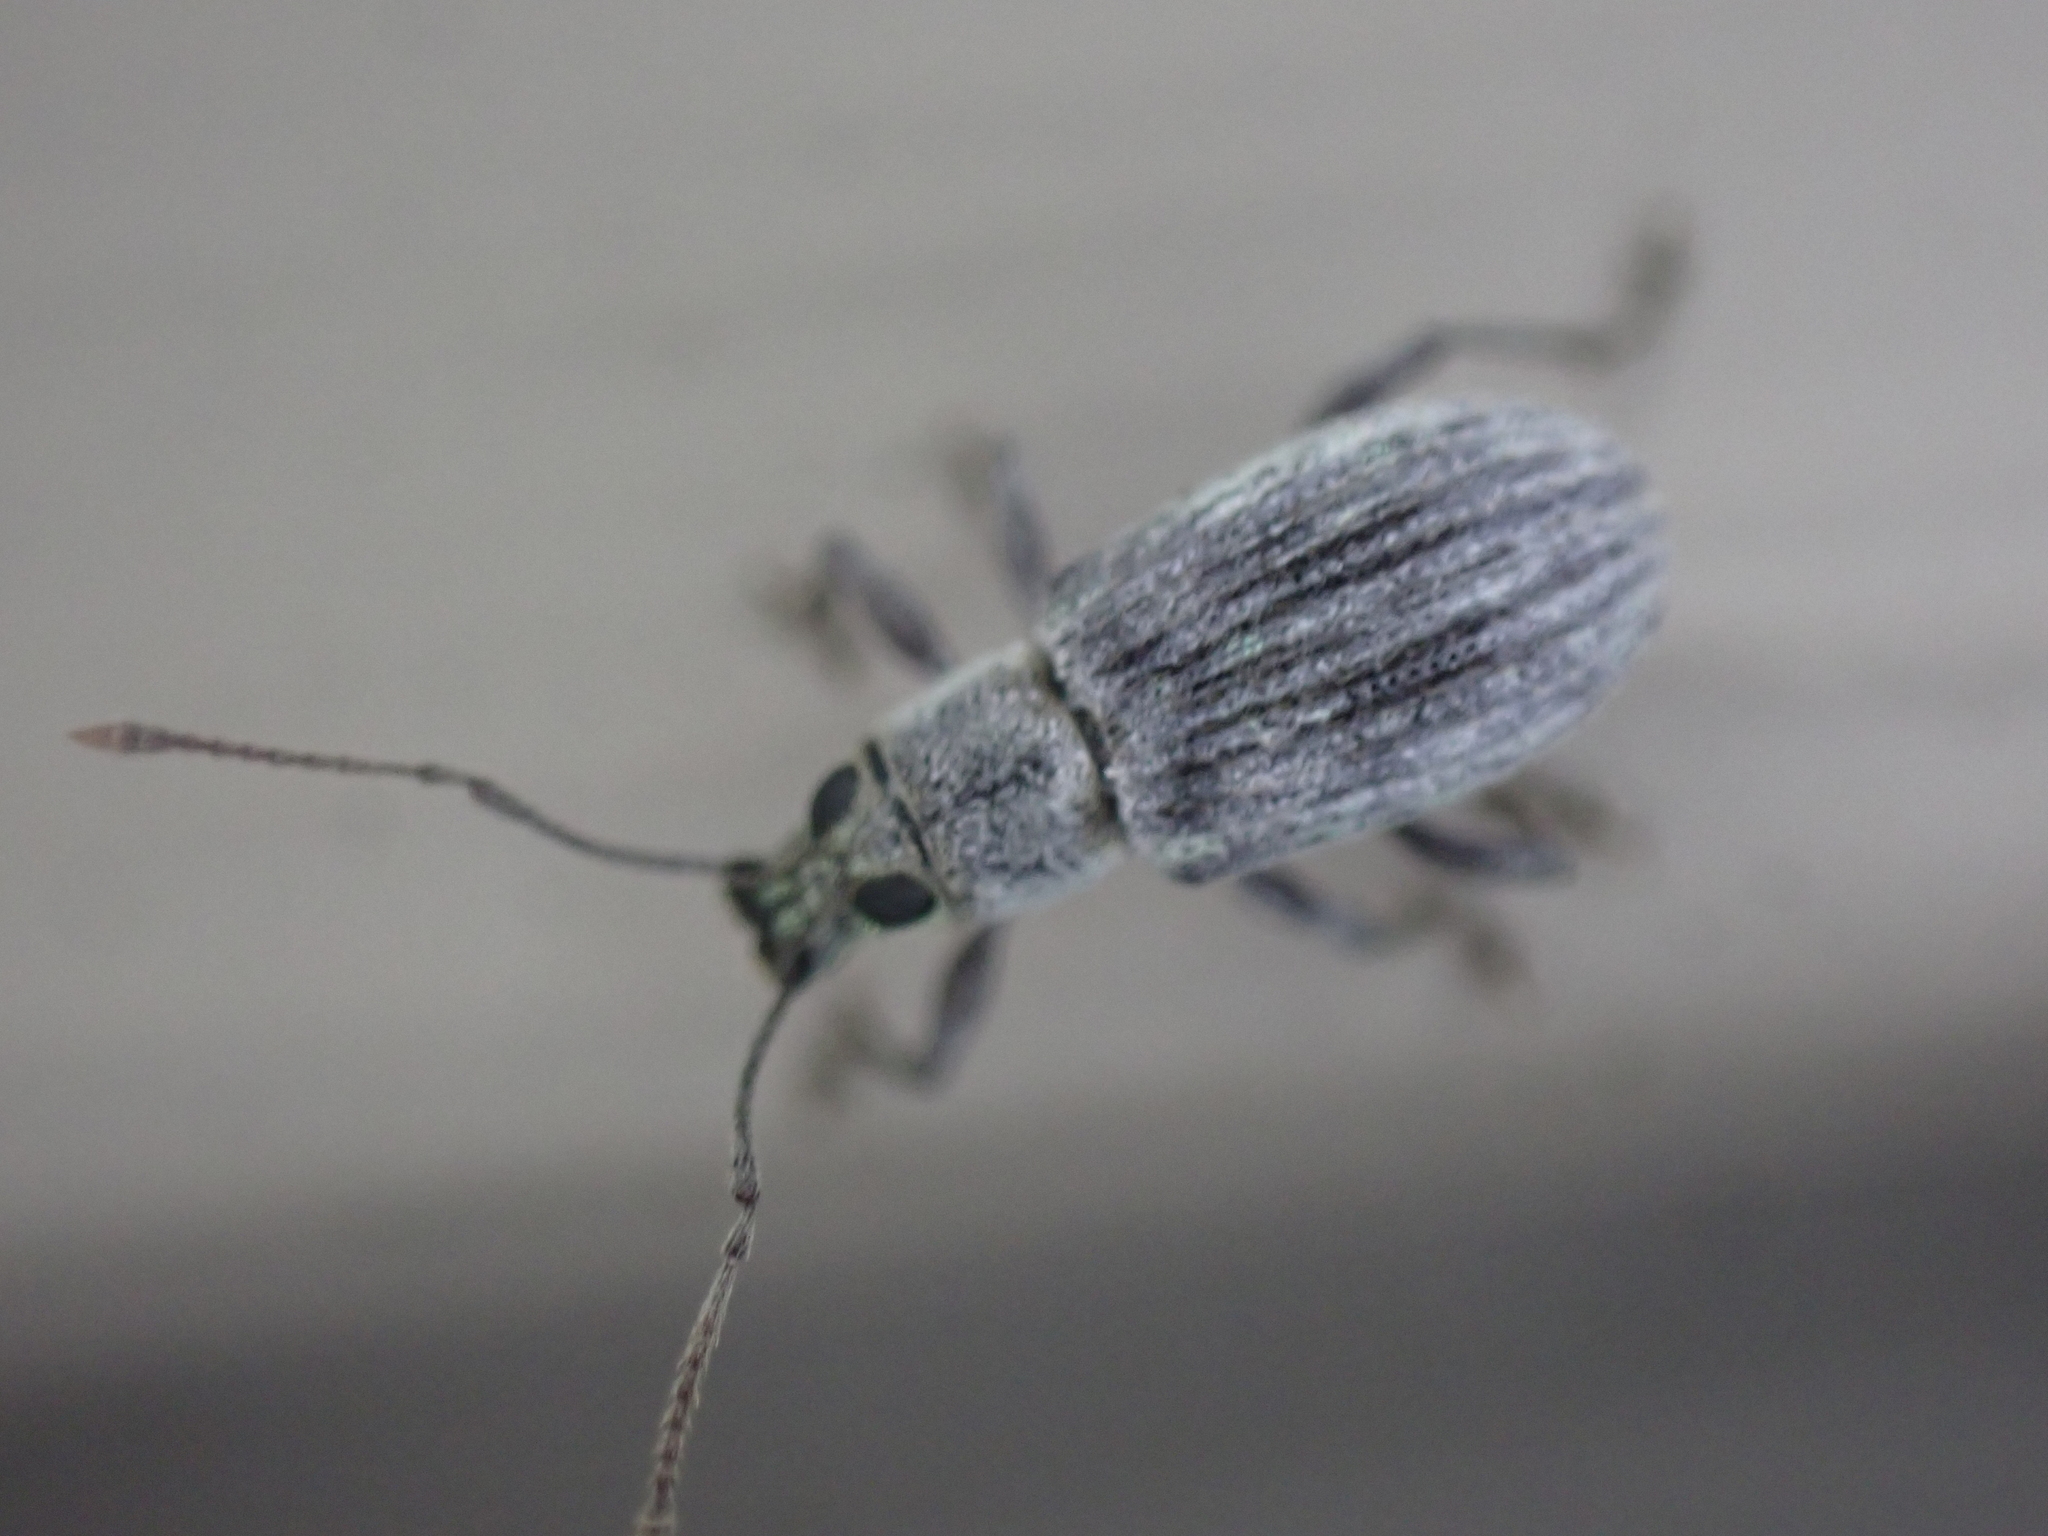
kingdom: Animalia
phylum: Arthropoda
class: Insecta
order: Coleoptera
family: Curculionidae
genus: Cyrtepistomus
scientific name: Cyrtepistomus castaneus
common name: Weevil
